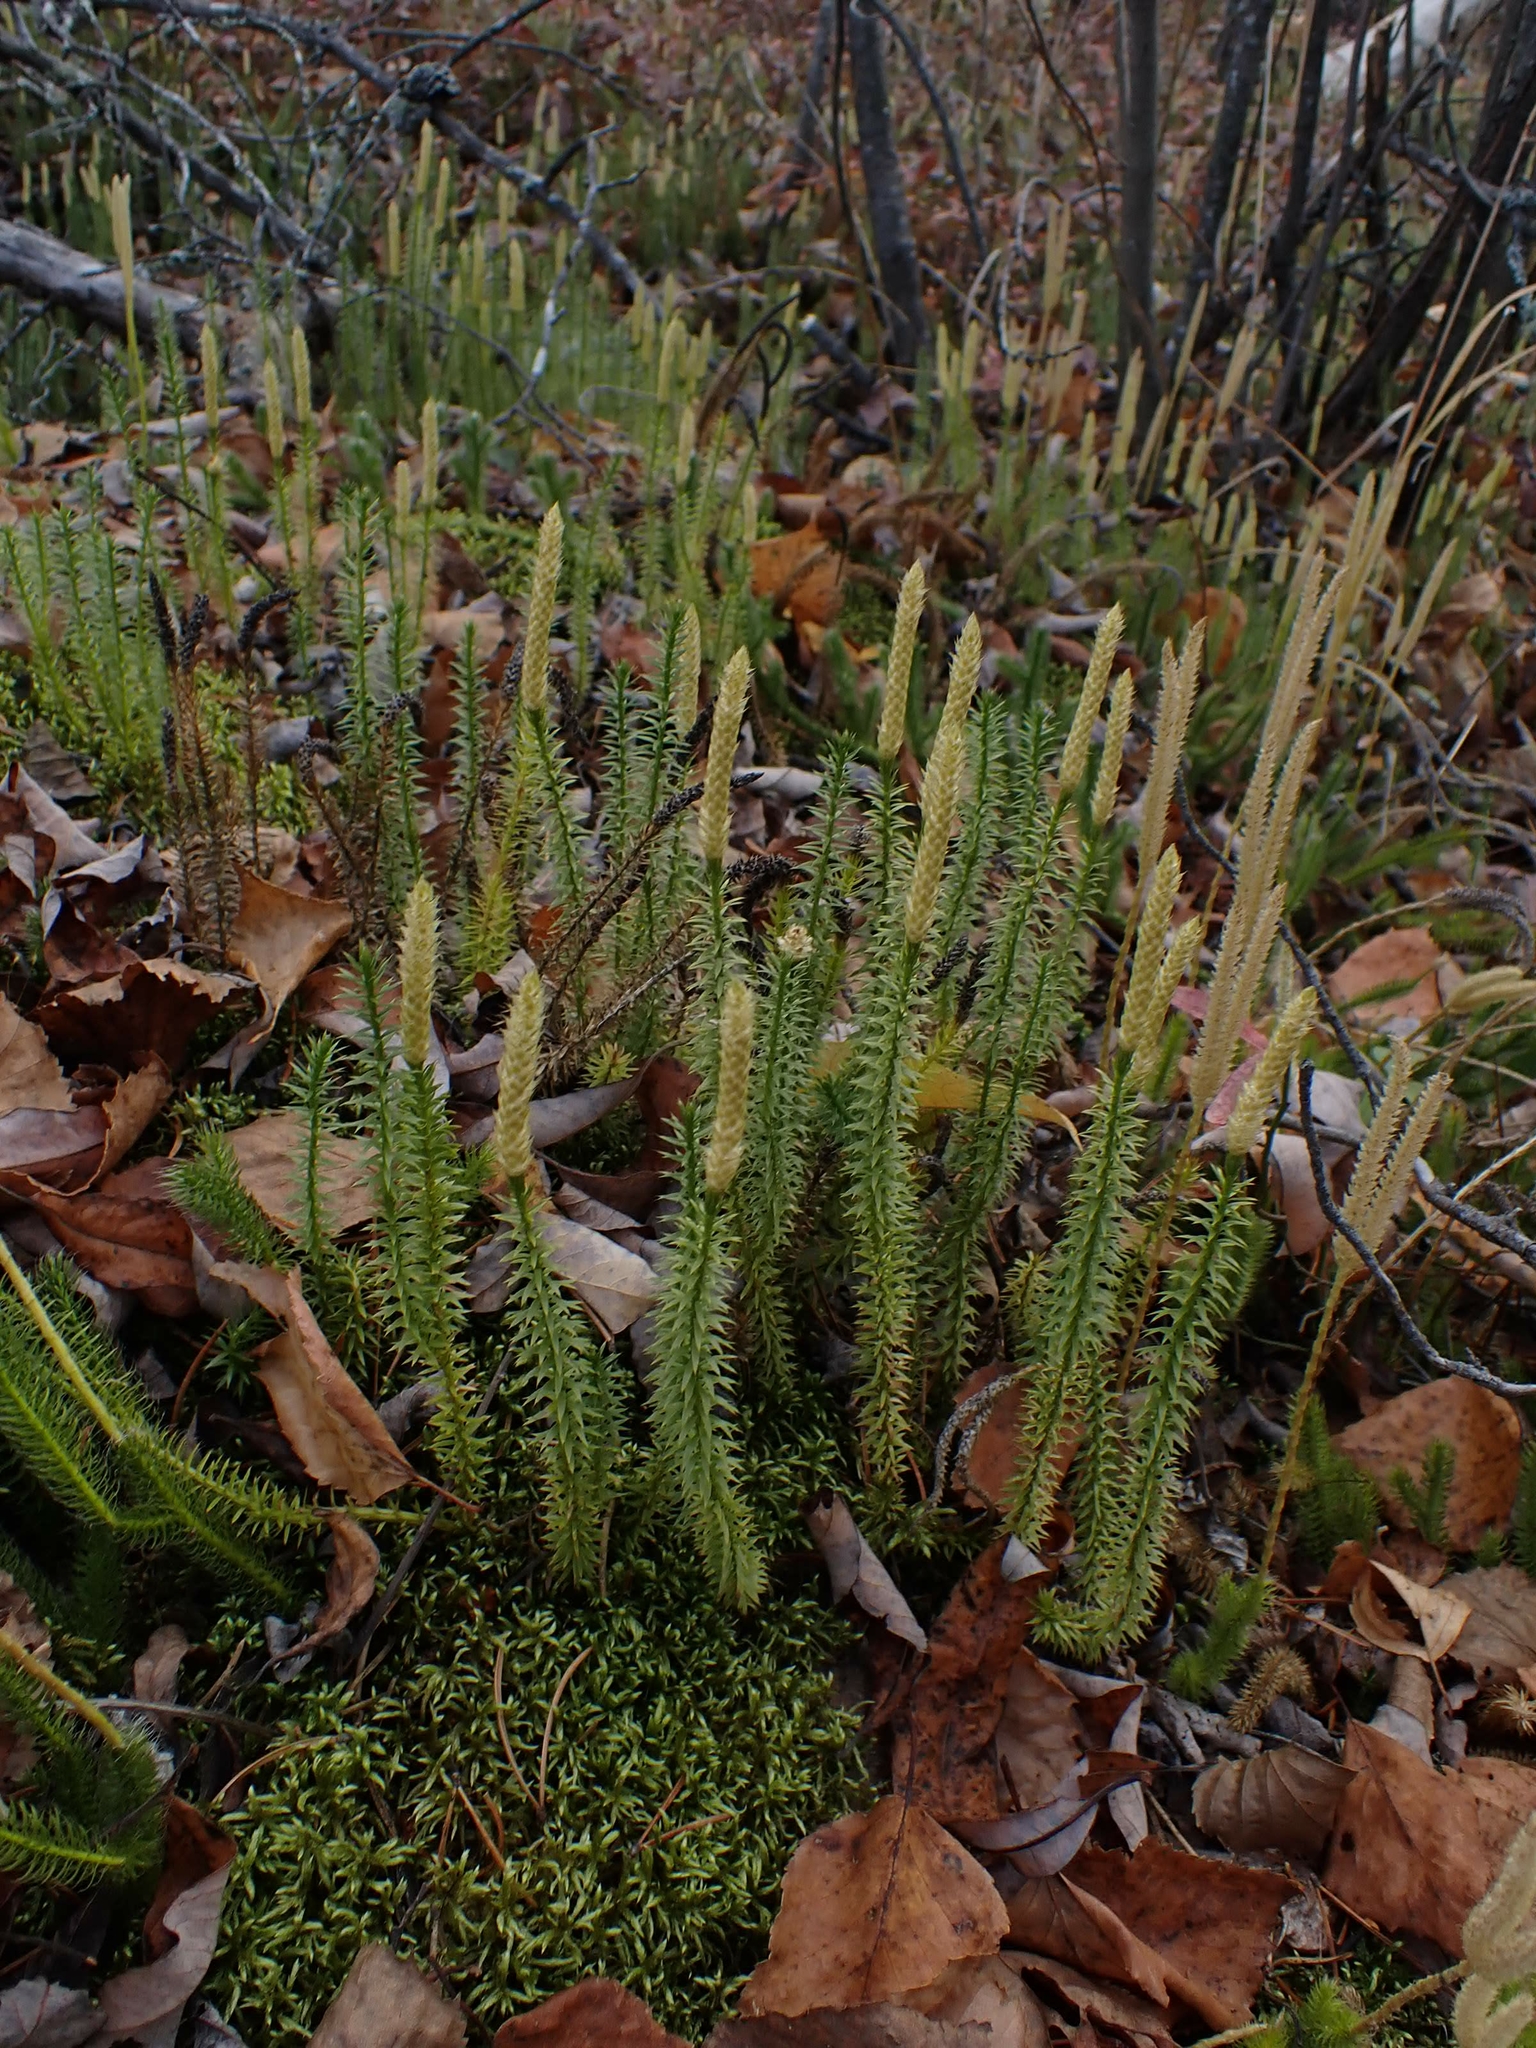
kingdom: Plantae
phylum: Tracheophyta
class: Lycopodiopsida
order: Lycopodiales
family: Lycopodiaceae
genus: Spinulum
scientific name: Spinulum annotinum
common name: Interrupted club-moss
